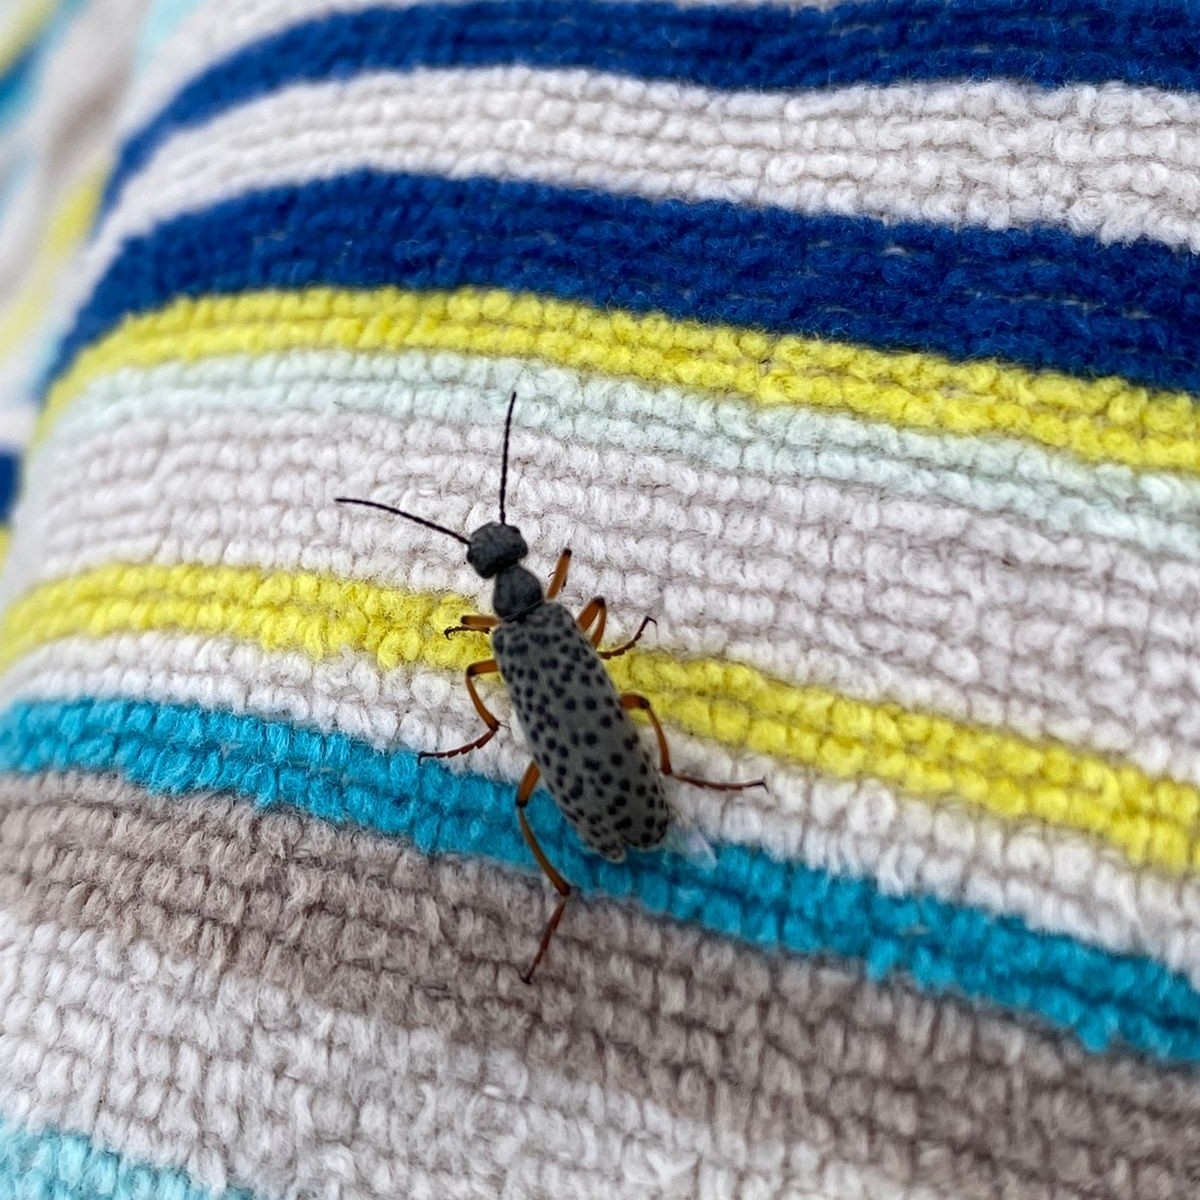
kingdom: Animalia
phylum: Arthropoda
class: Insecta
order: Coleoptera
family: Meloidae
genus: Epicauta
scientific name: Epicauta
